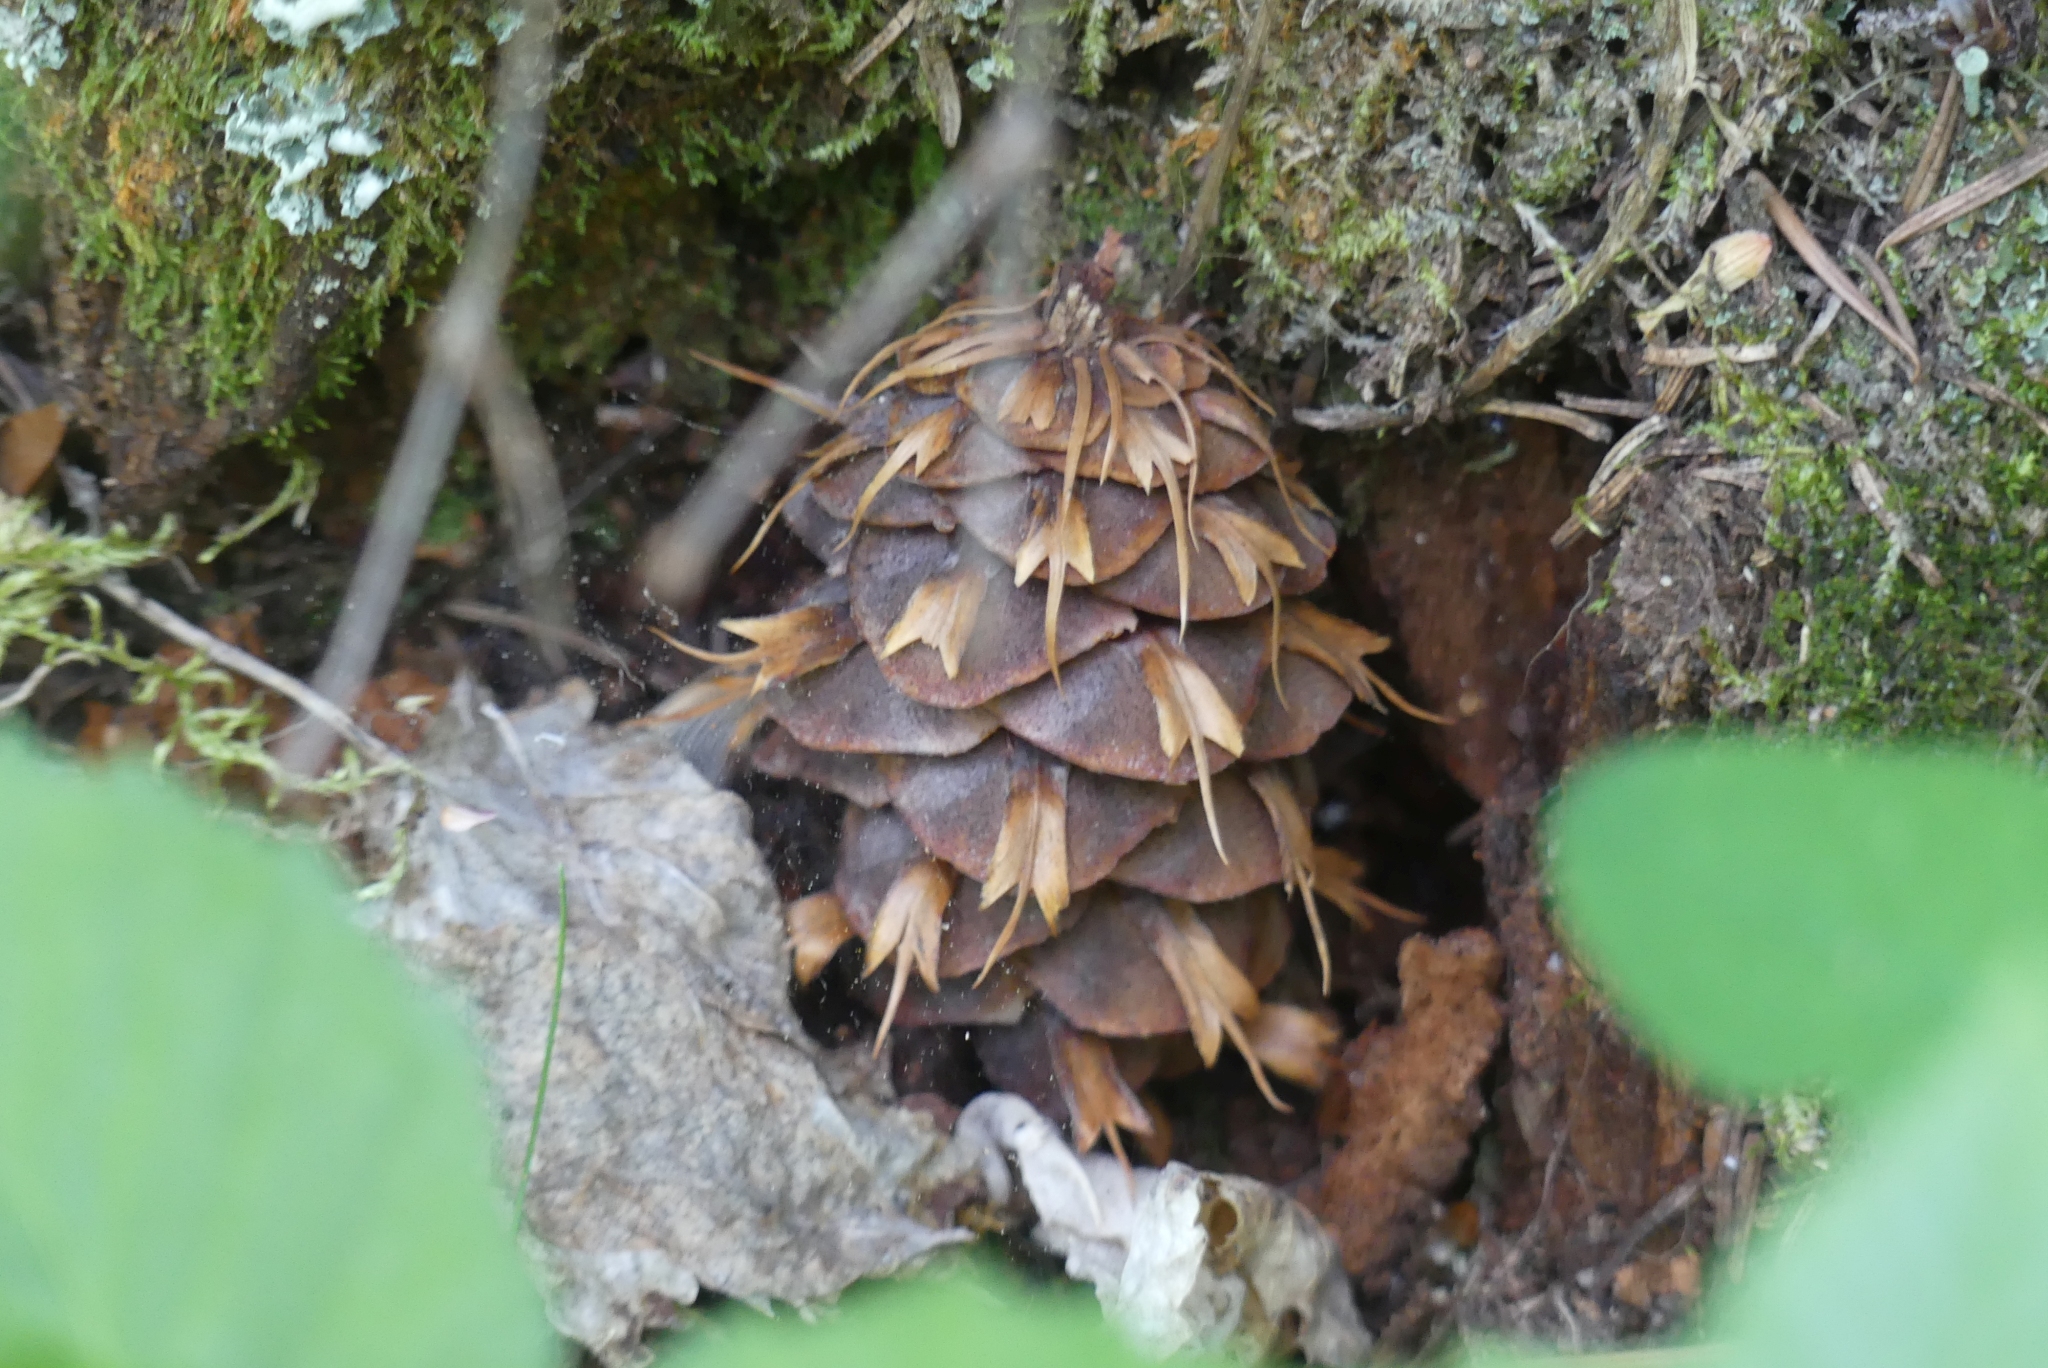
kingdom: Plantae
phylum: Tracheophyta
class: Pinopsida
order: Pinales
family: Pinaceae
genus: Pseudotsuga
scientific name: Pseudotsuga menziesii
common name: Douglas fir
